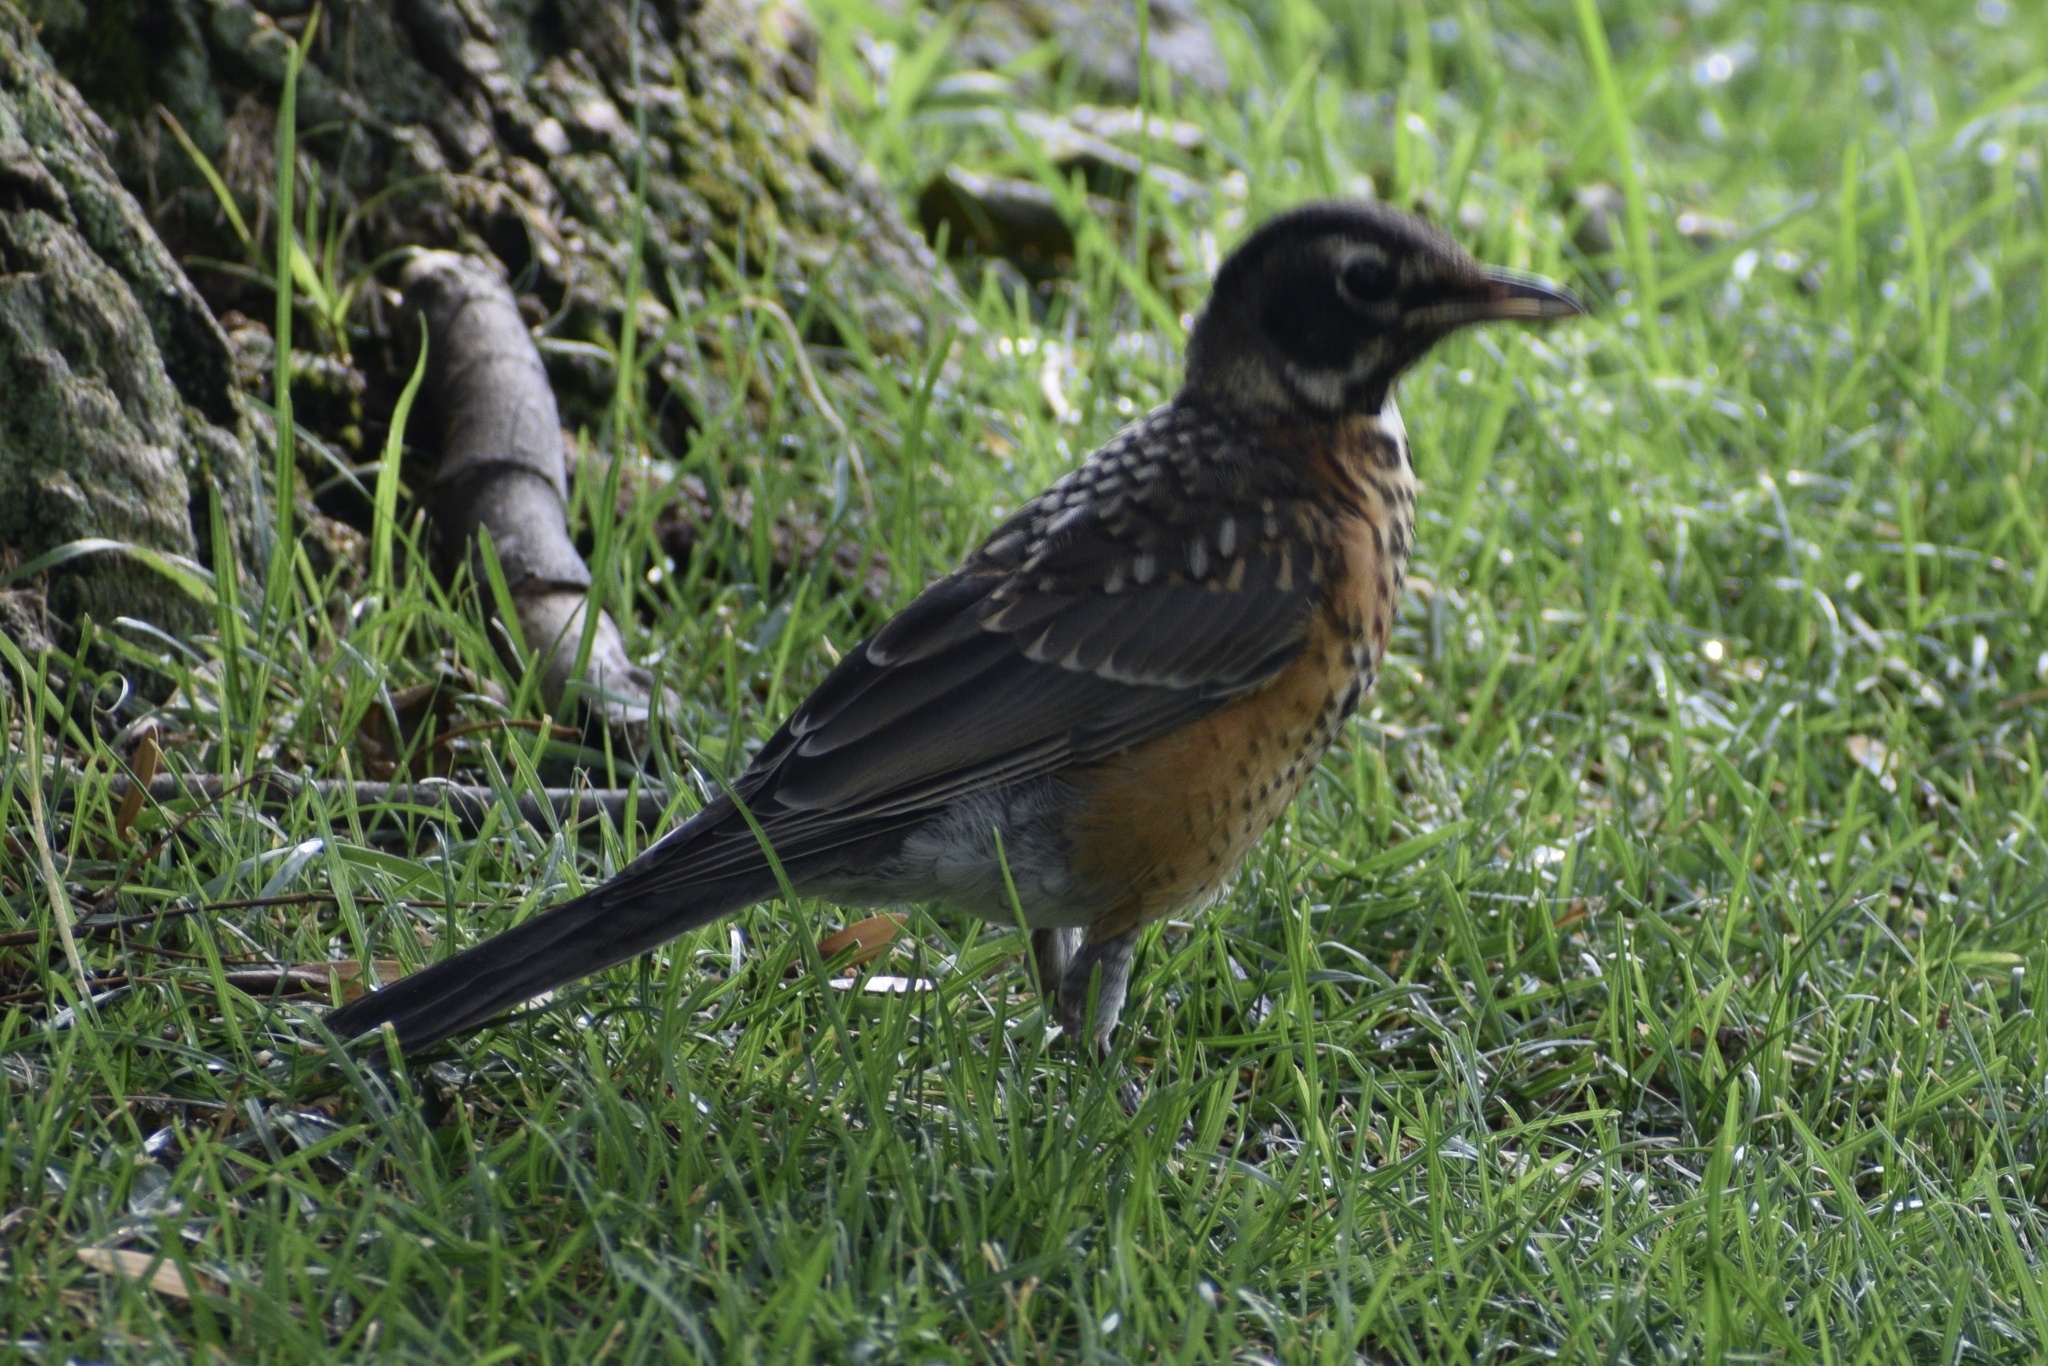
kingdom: Animalia
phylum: Chordata
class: Aves
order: Passeriformes
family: Turdidae
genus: Turdus
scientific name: Turdus migratorius
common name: American robin
